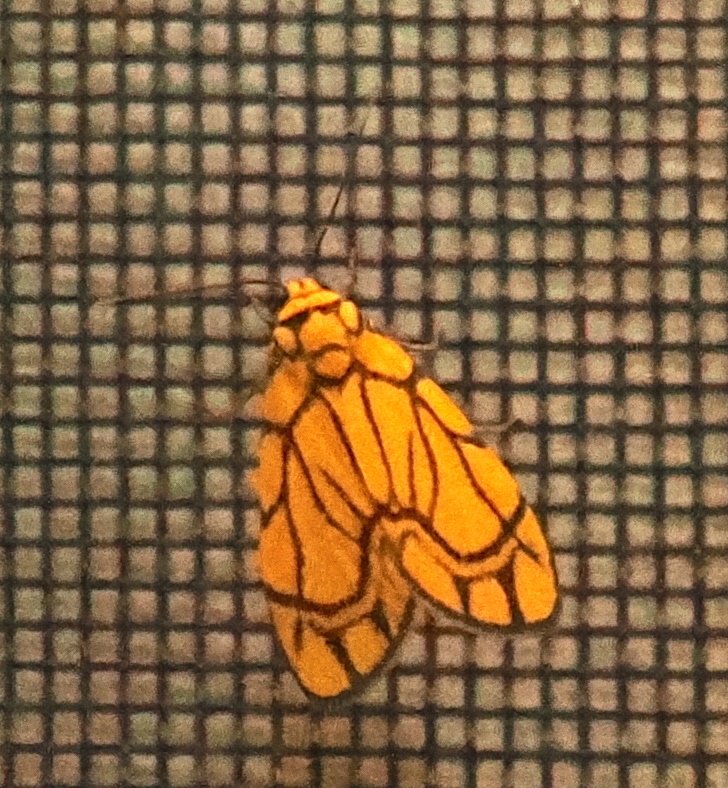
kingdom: Animalia
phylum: Arthropoda
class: Insecta
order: Lepidoptera
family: Erebidae
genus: Cyme
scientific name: Cyme euprepioides
